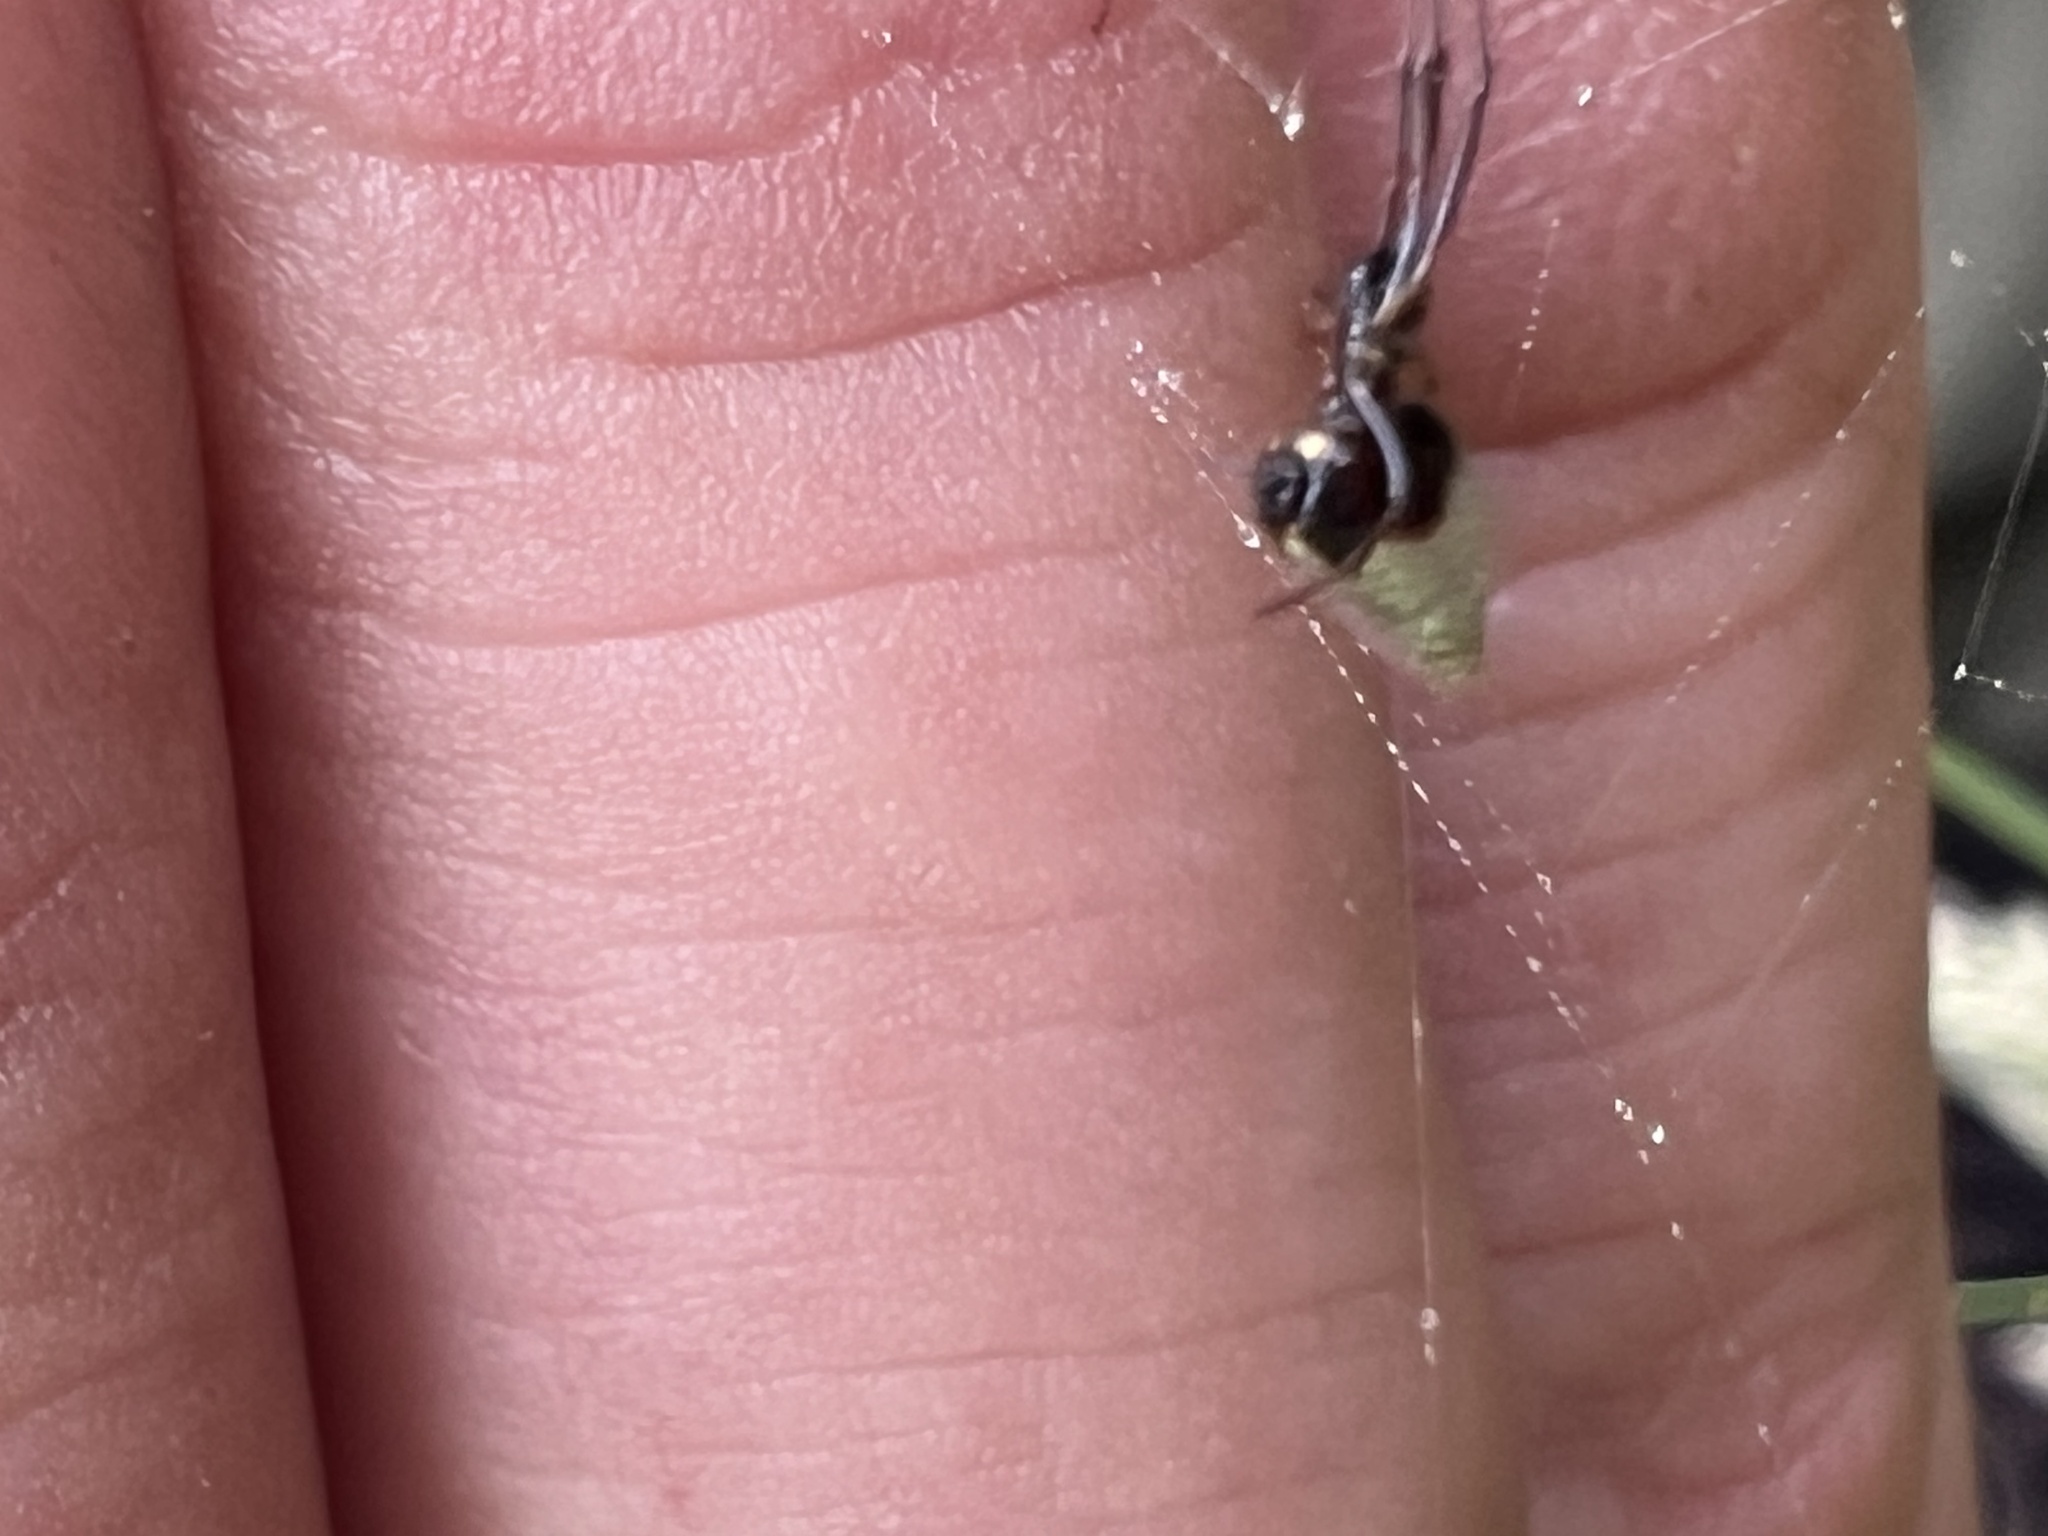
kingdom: Animalia
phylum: Arthropoda
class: Arachnida
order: Araneae
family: Theridiidae
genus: Argyrodes
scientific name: Argyrodes antipodianus
